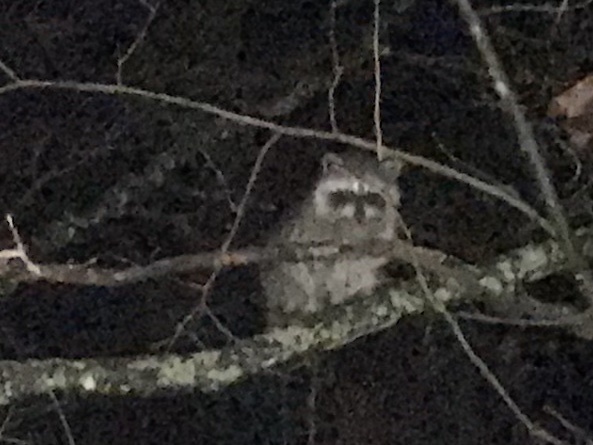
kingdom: Animalia
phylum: Chordata
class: Mammalia
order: Carnivora
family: Procyonidae
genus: Procyon
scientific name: Procyon lotor
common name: Raccoon
